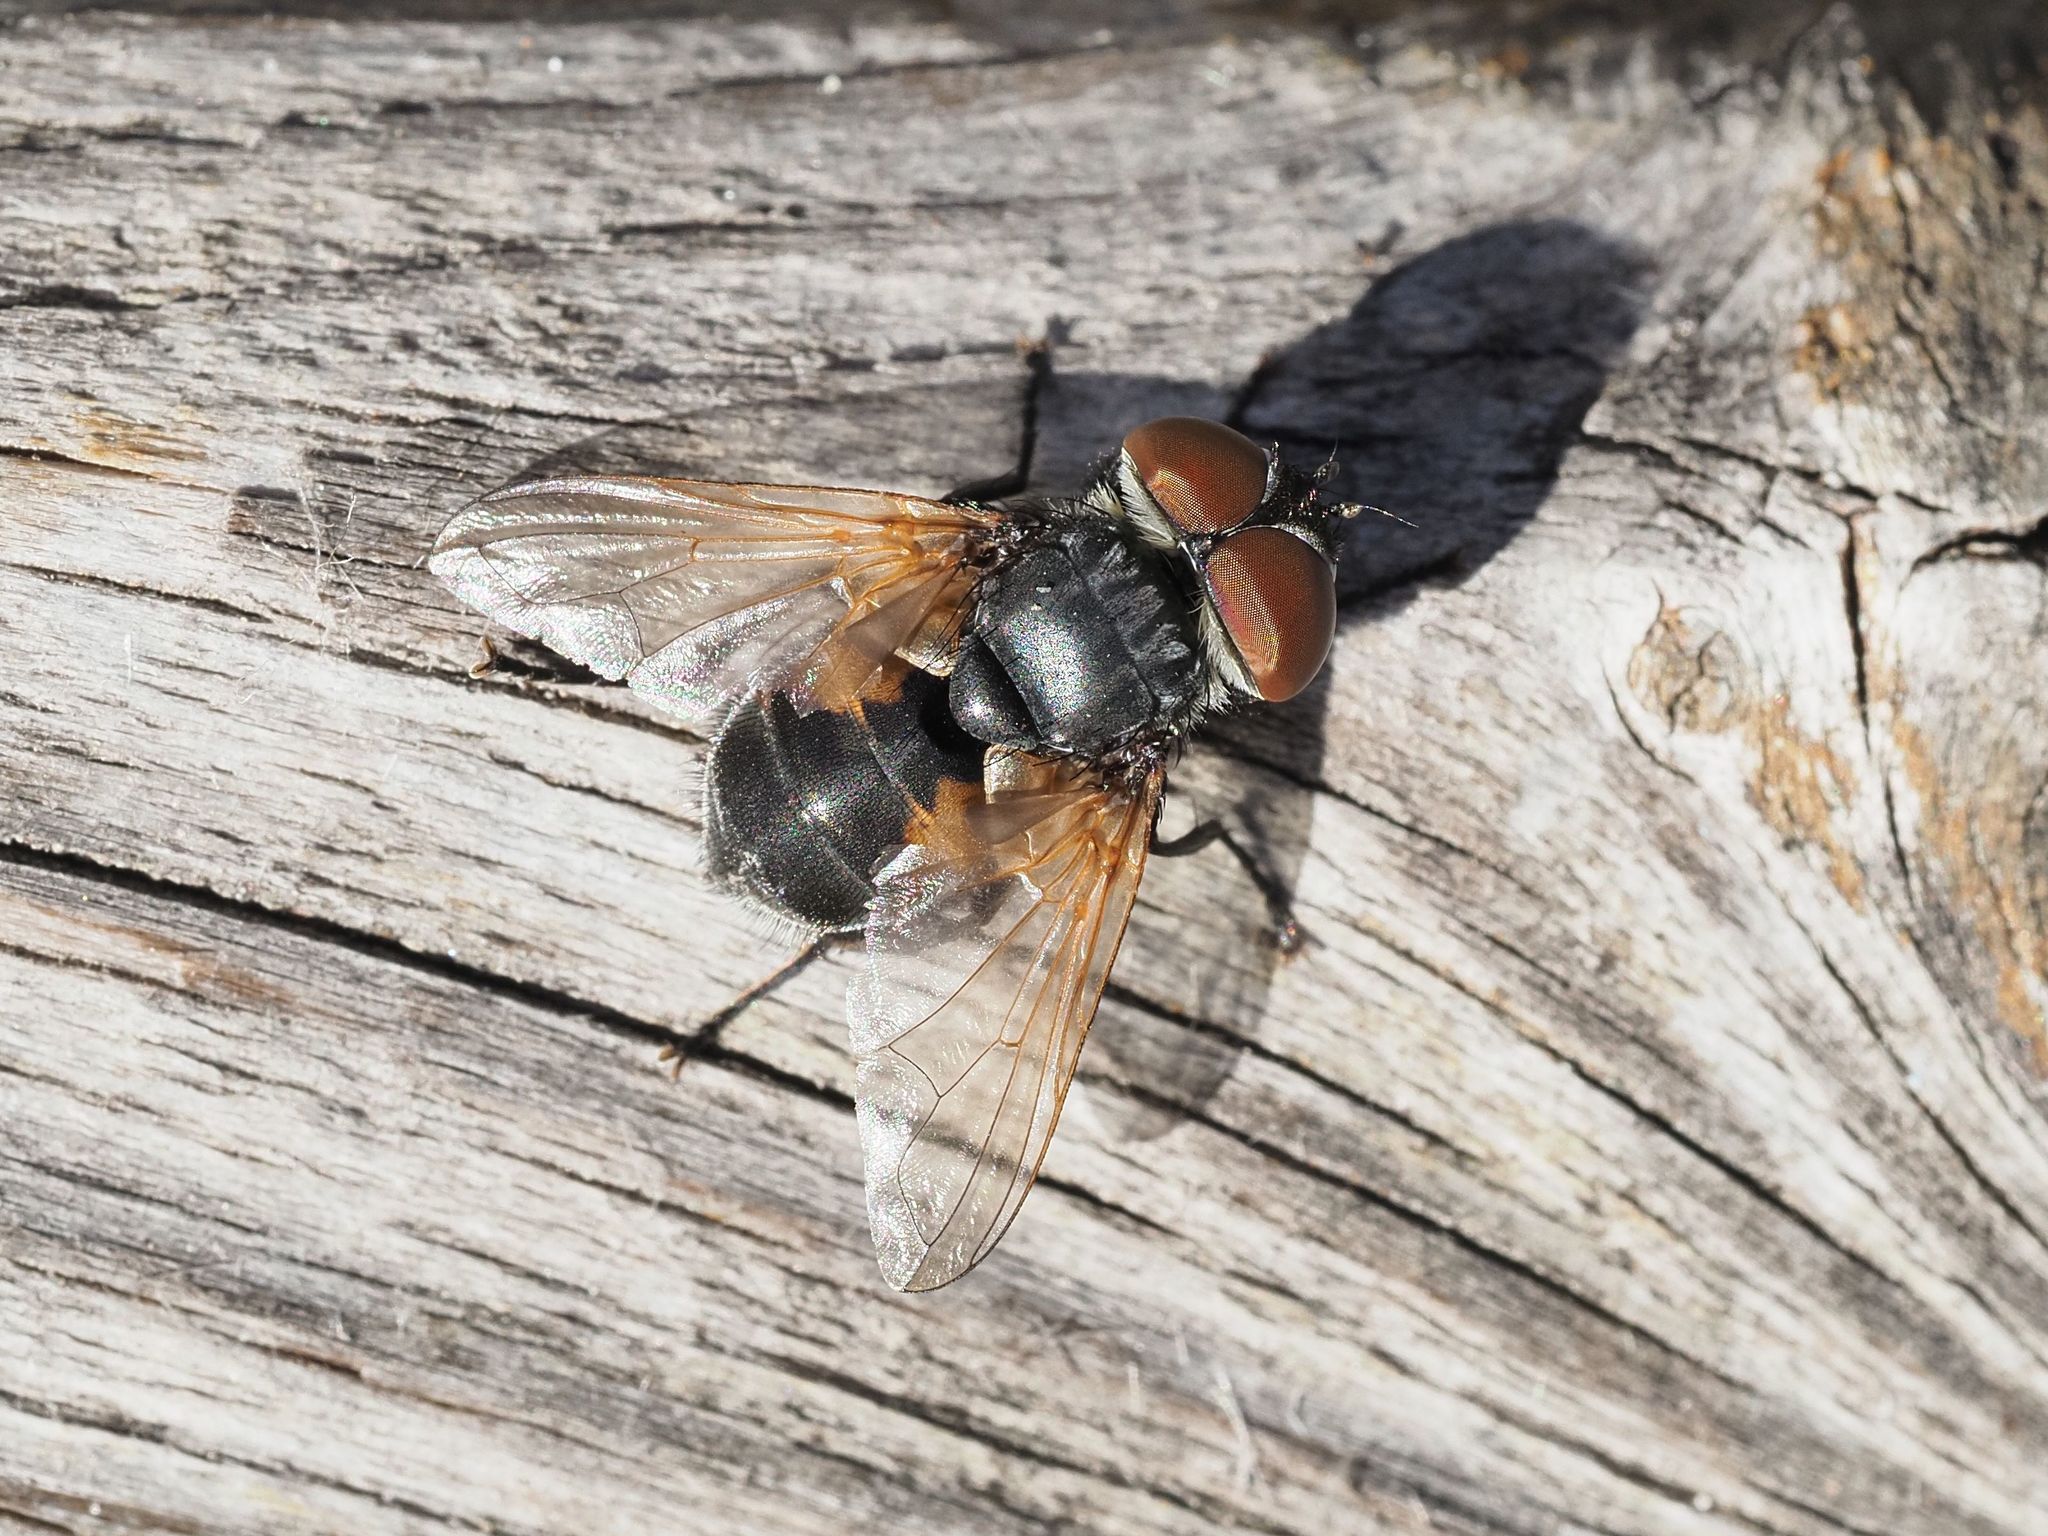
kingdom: Animalia
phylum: Arthropoda
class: Insecta
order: Diptera
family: Tachinidae
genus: Phasia
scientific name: Phasia aurigera
